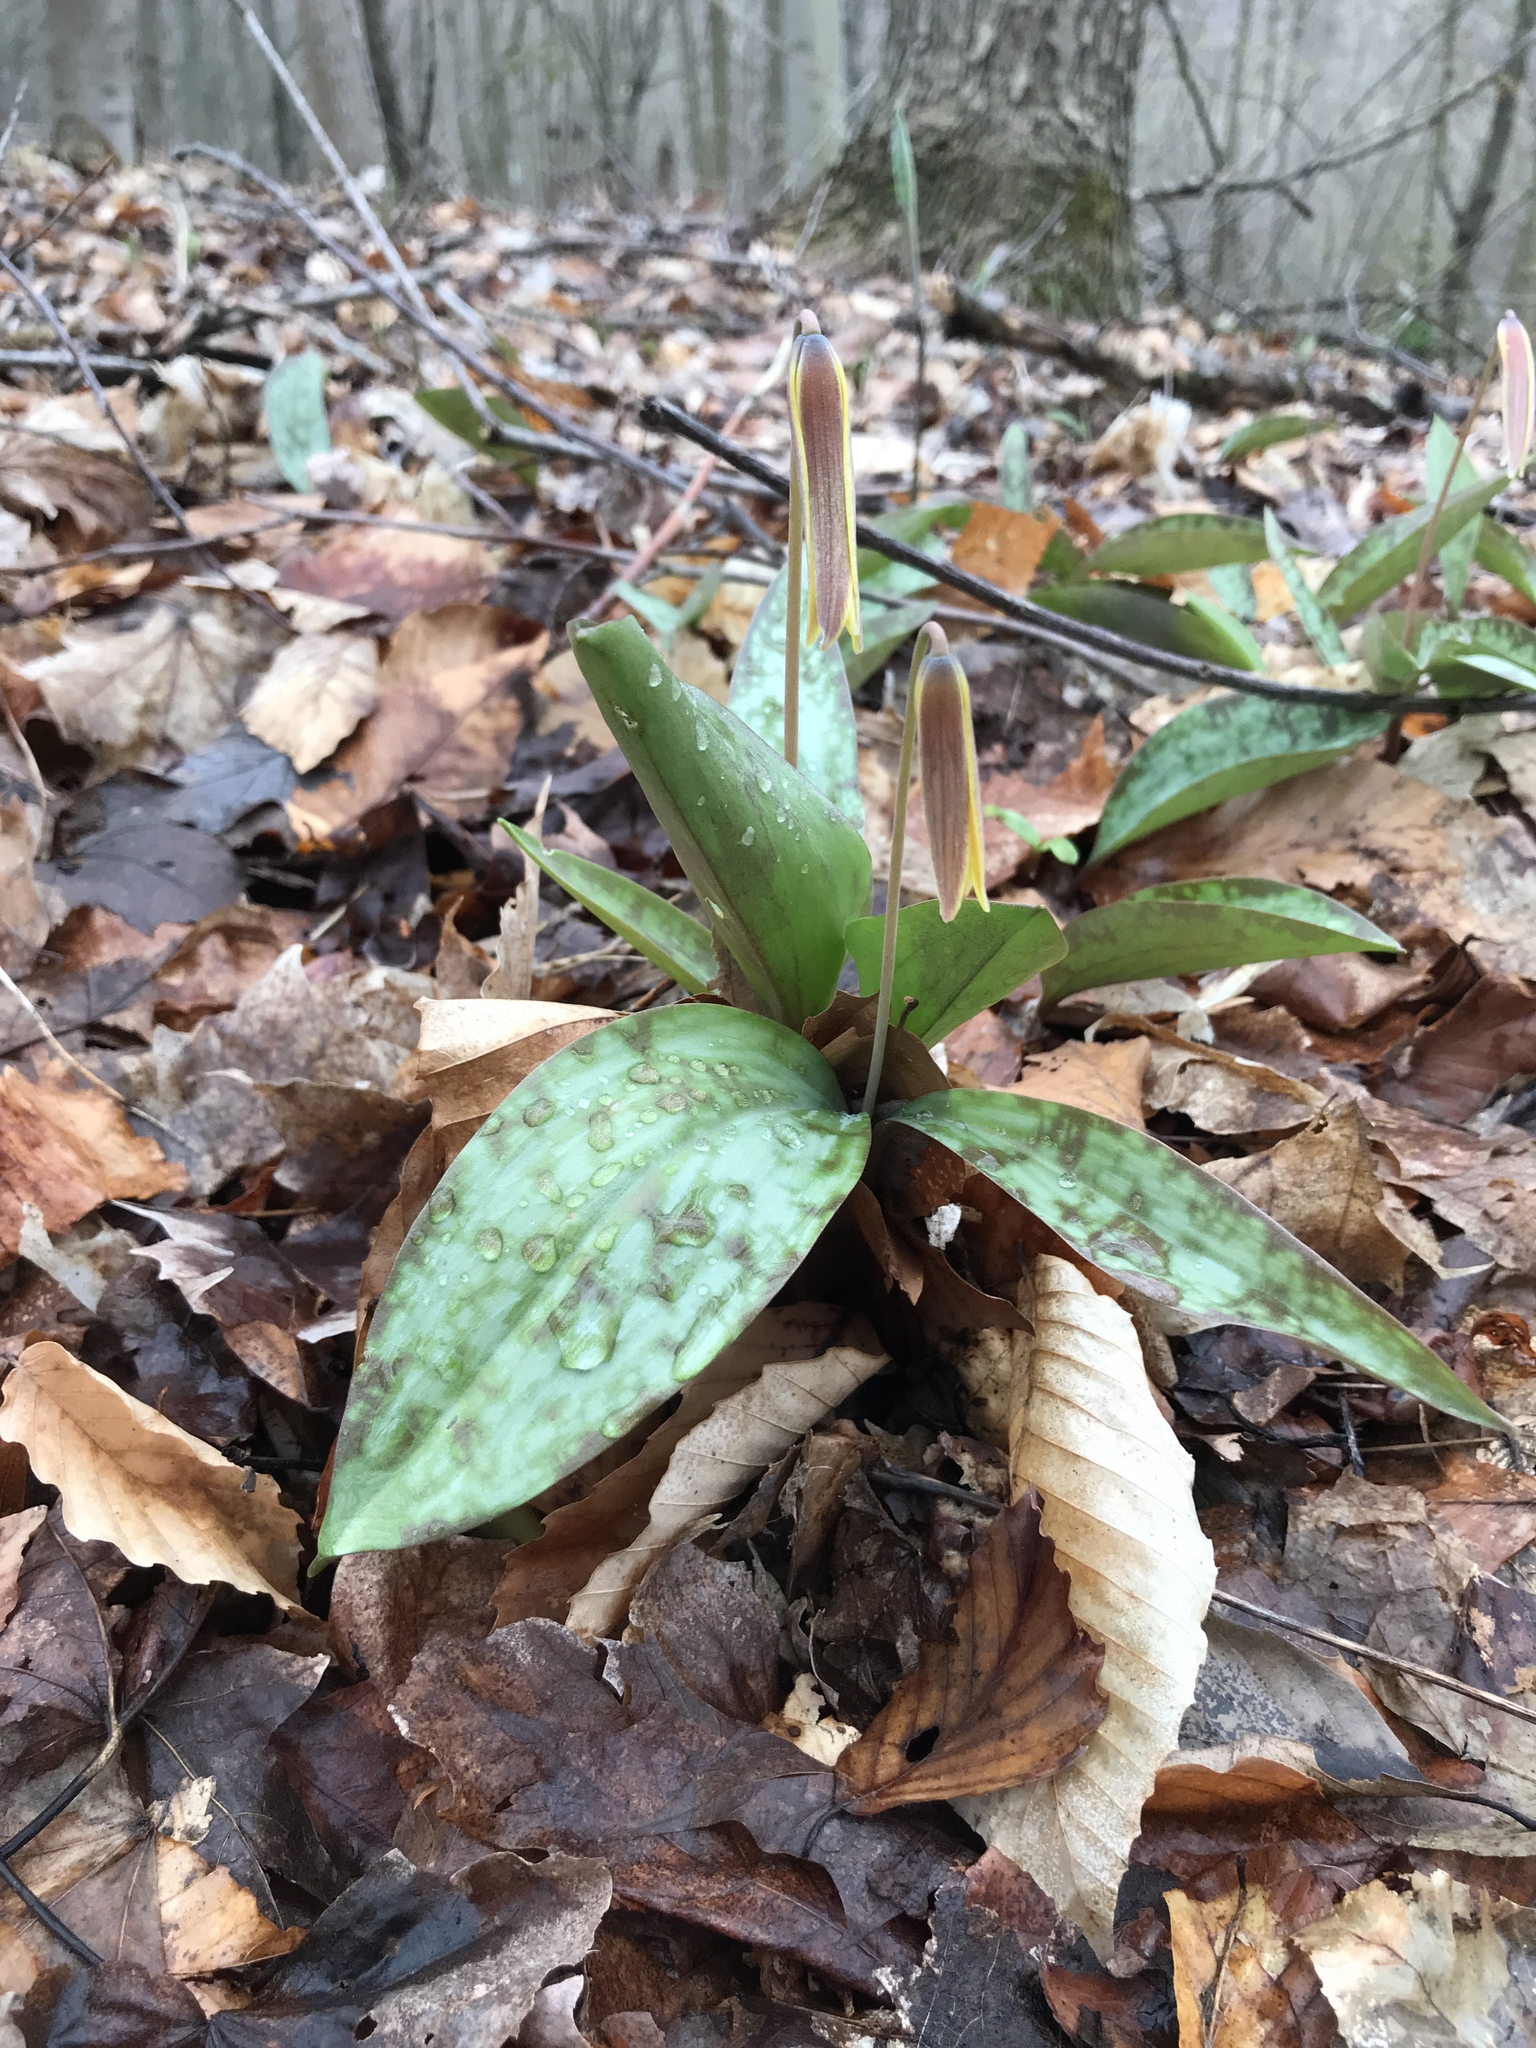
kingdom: Plantae
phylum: Tracheophyta
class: Liliopsida
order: Liliales
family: Liliaceae
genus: Erythronium
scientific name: Erythronium americanum
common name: Yellow adder's-tongue
